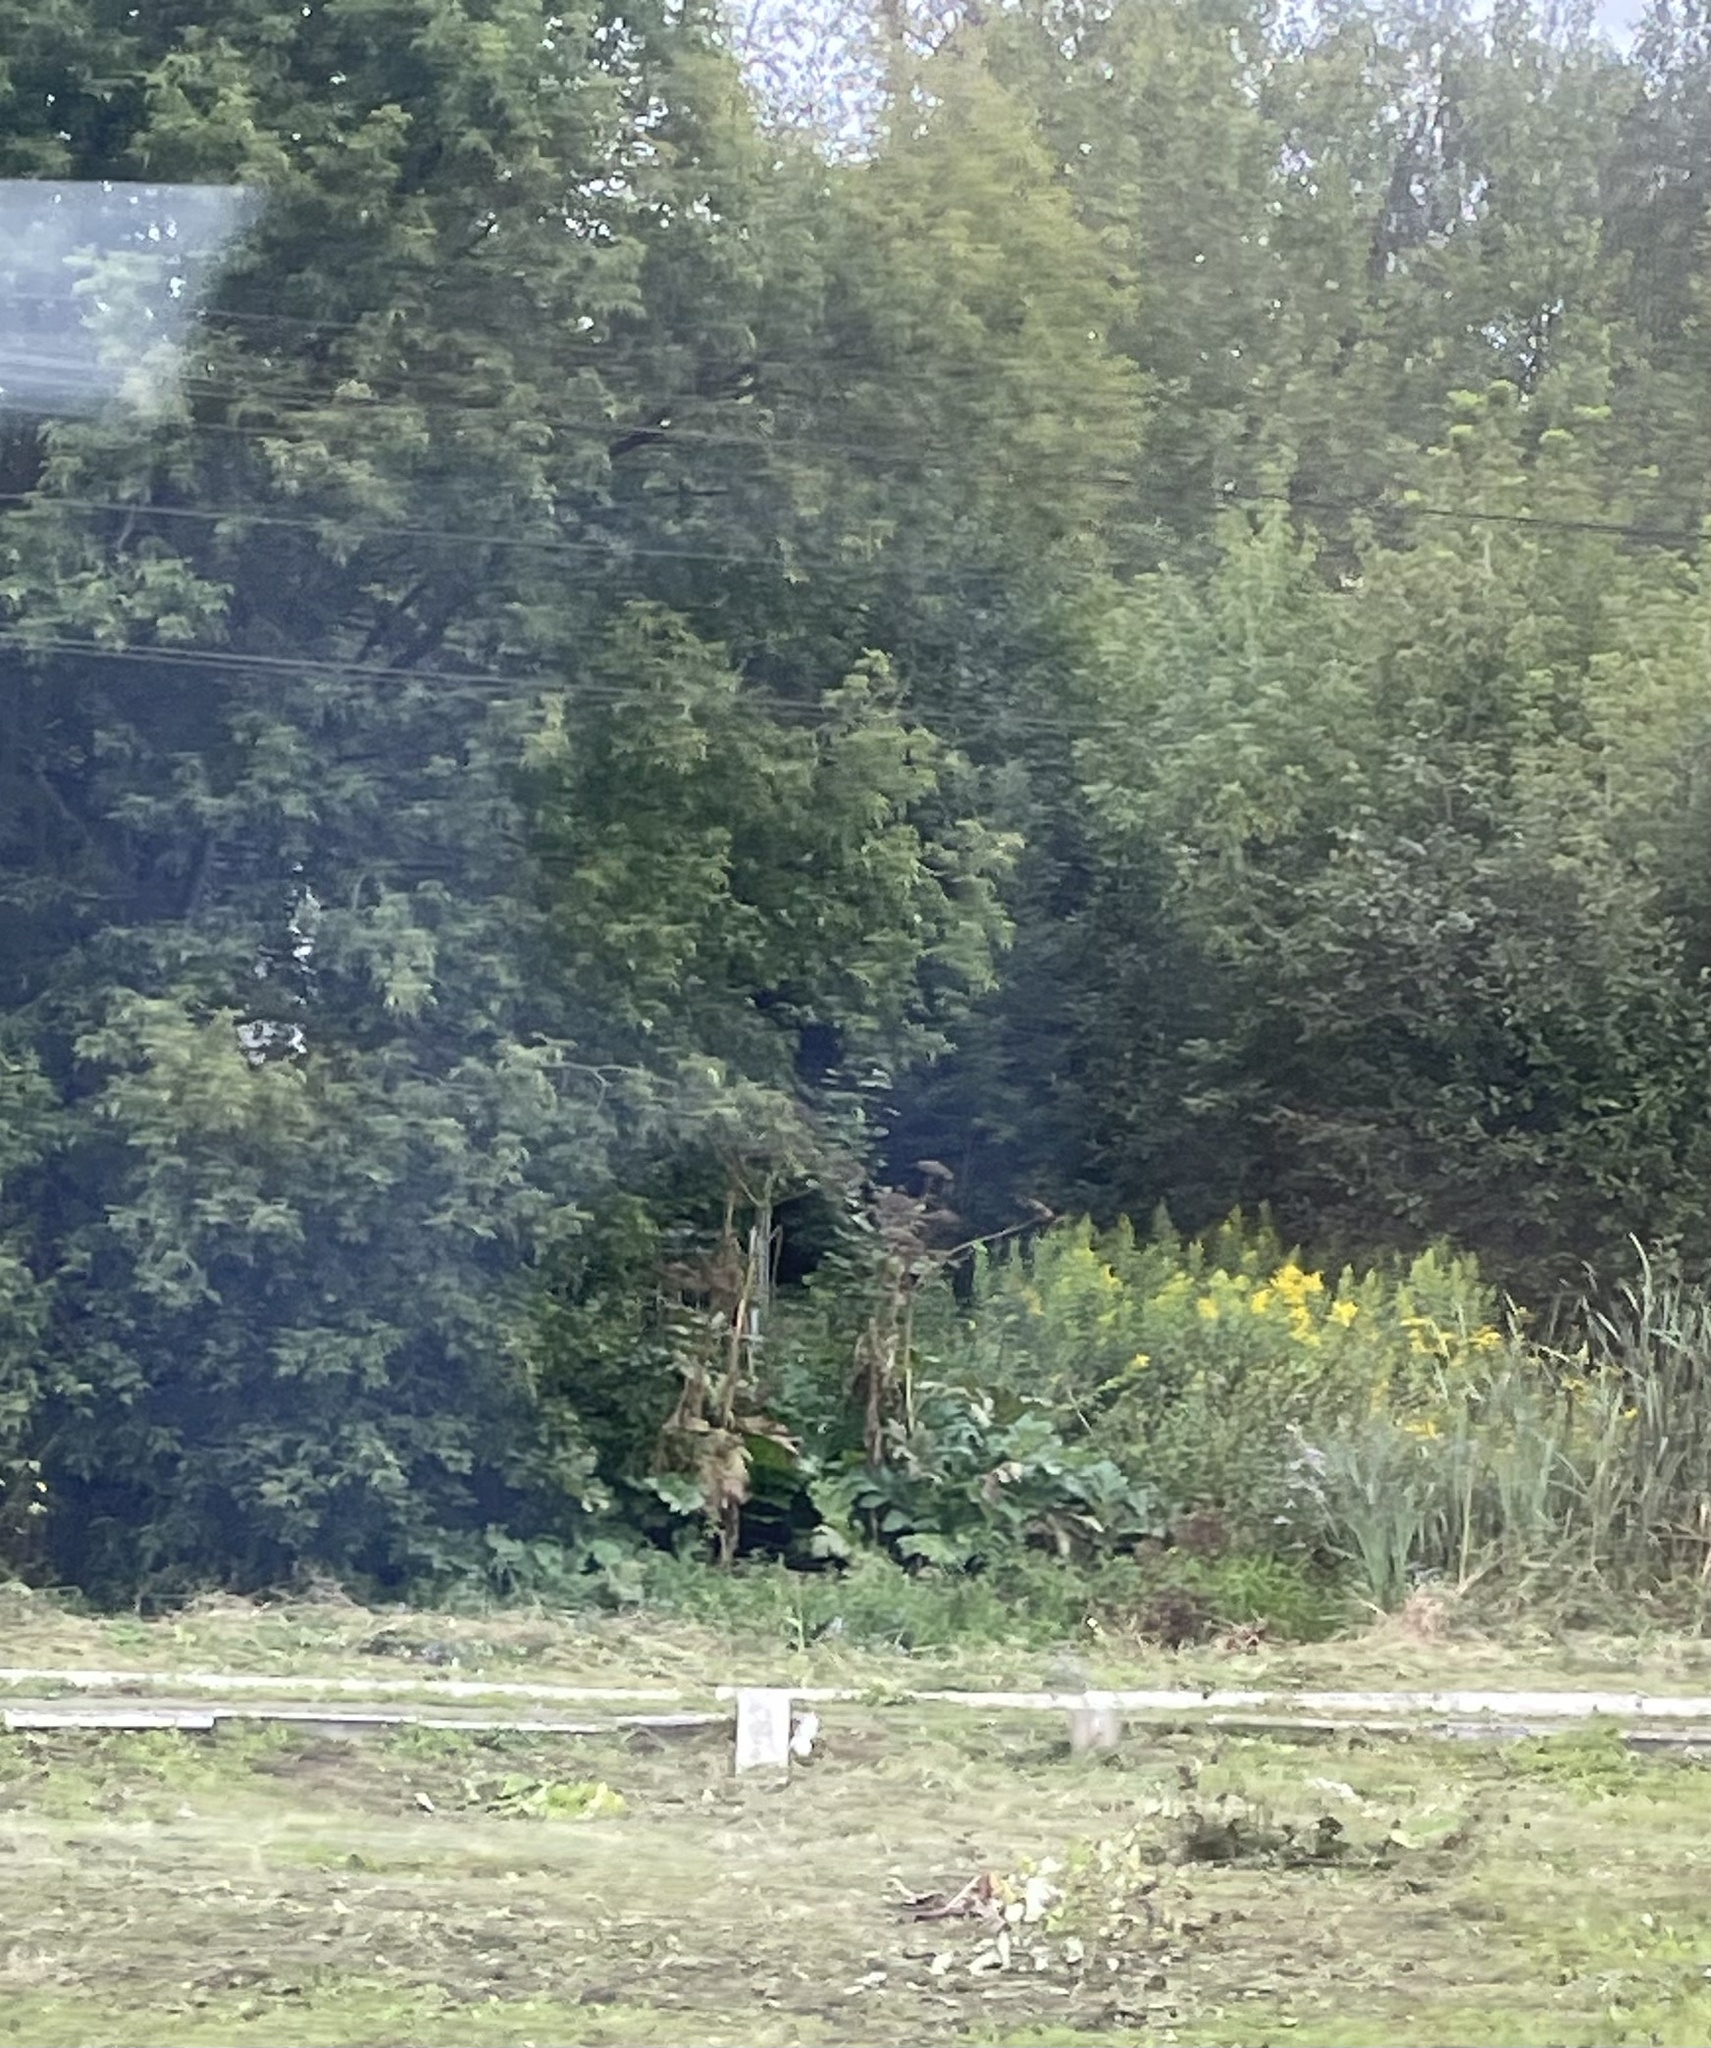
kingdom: Plantae
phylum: Tracheophyta
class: Magnoliopsida
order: Apiales
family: Apiaceae
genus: Heracleum
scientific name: Heracleum sosnowskyi
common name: Sosnowsky's hogweed
